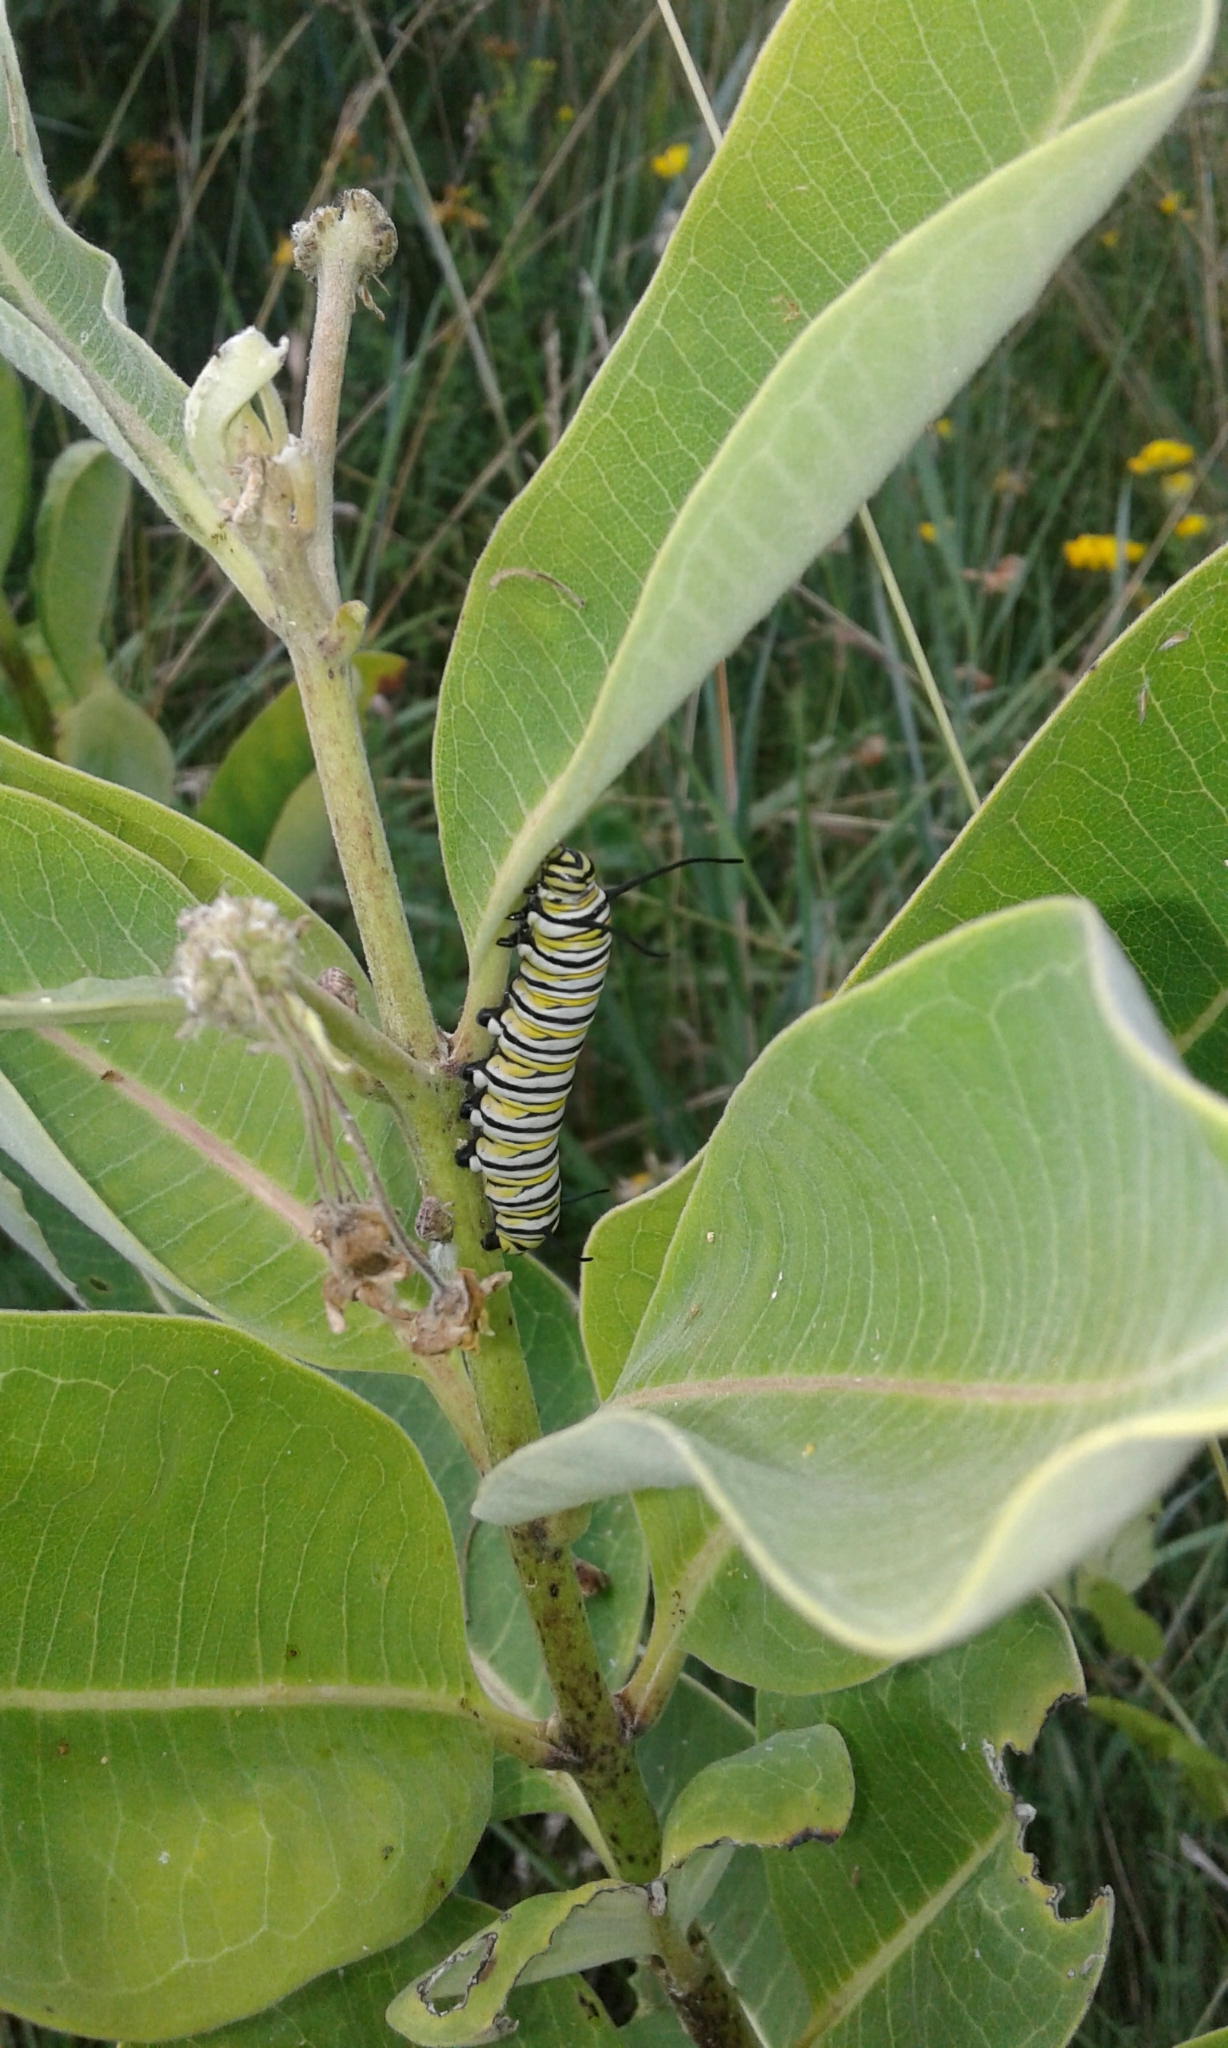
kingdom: Animalia
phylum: Arthropoda
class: Insecta
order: Lepidoptera
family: Nymphalidae
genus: Danaus
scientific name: Danaus plexippus
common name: Monarch
